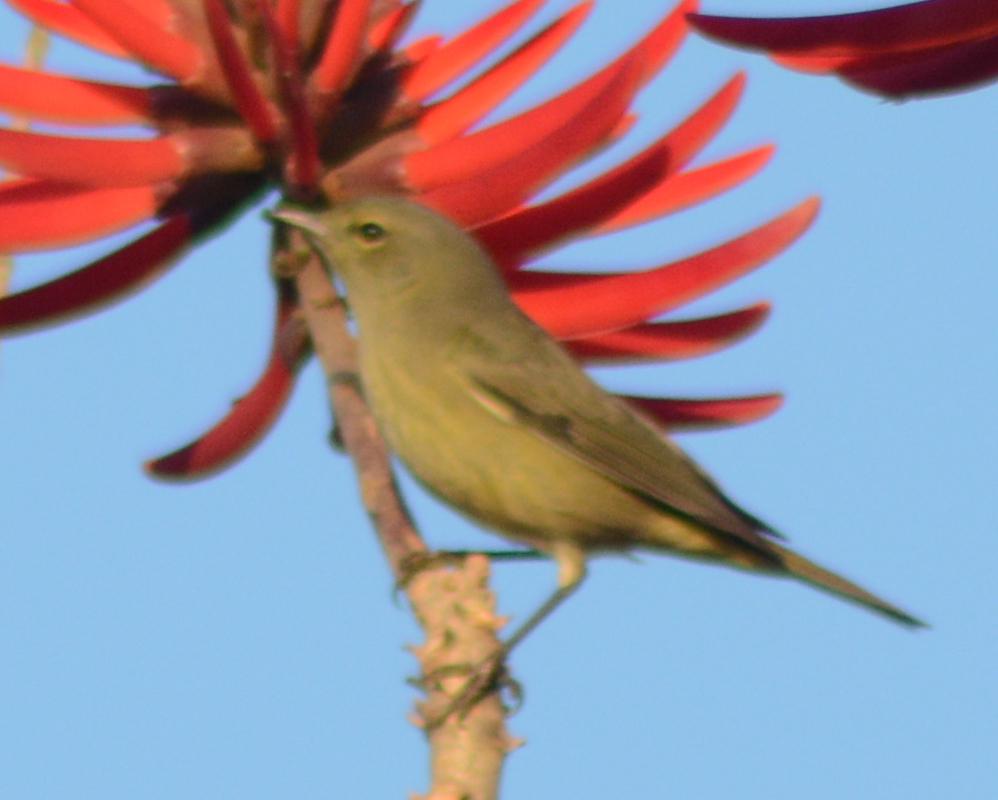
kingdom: Animalia
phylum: Chordata
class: Aves
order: Passeriformes
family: Parulidae
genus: Leiothlypis
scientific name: Leiothlypis celata
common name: Orange-crowned warbler
